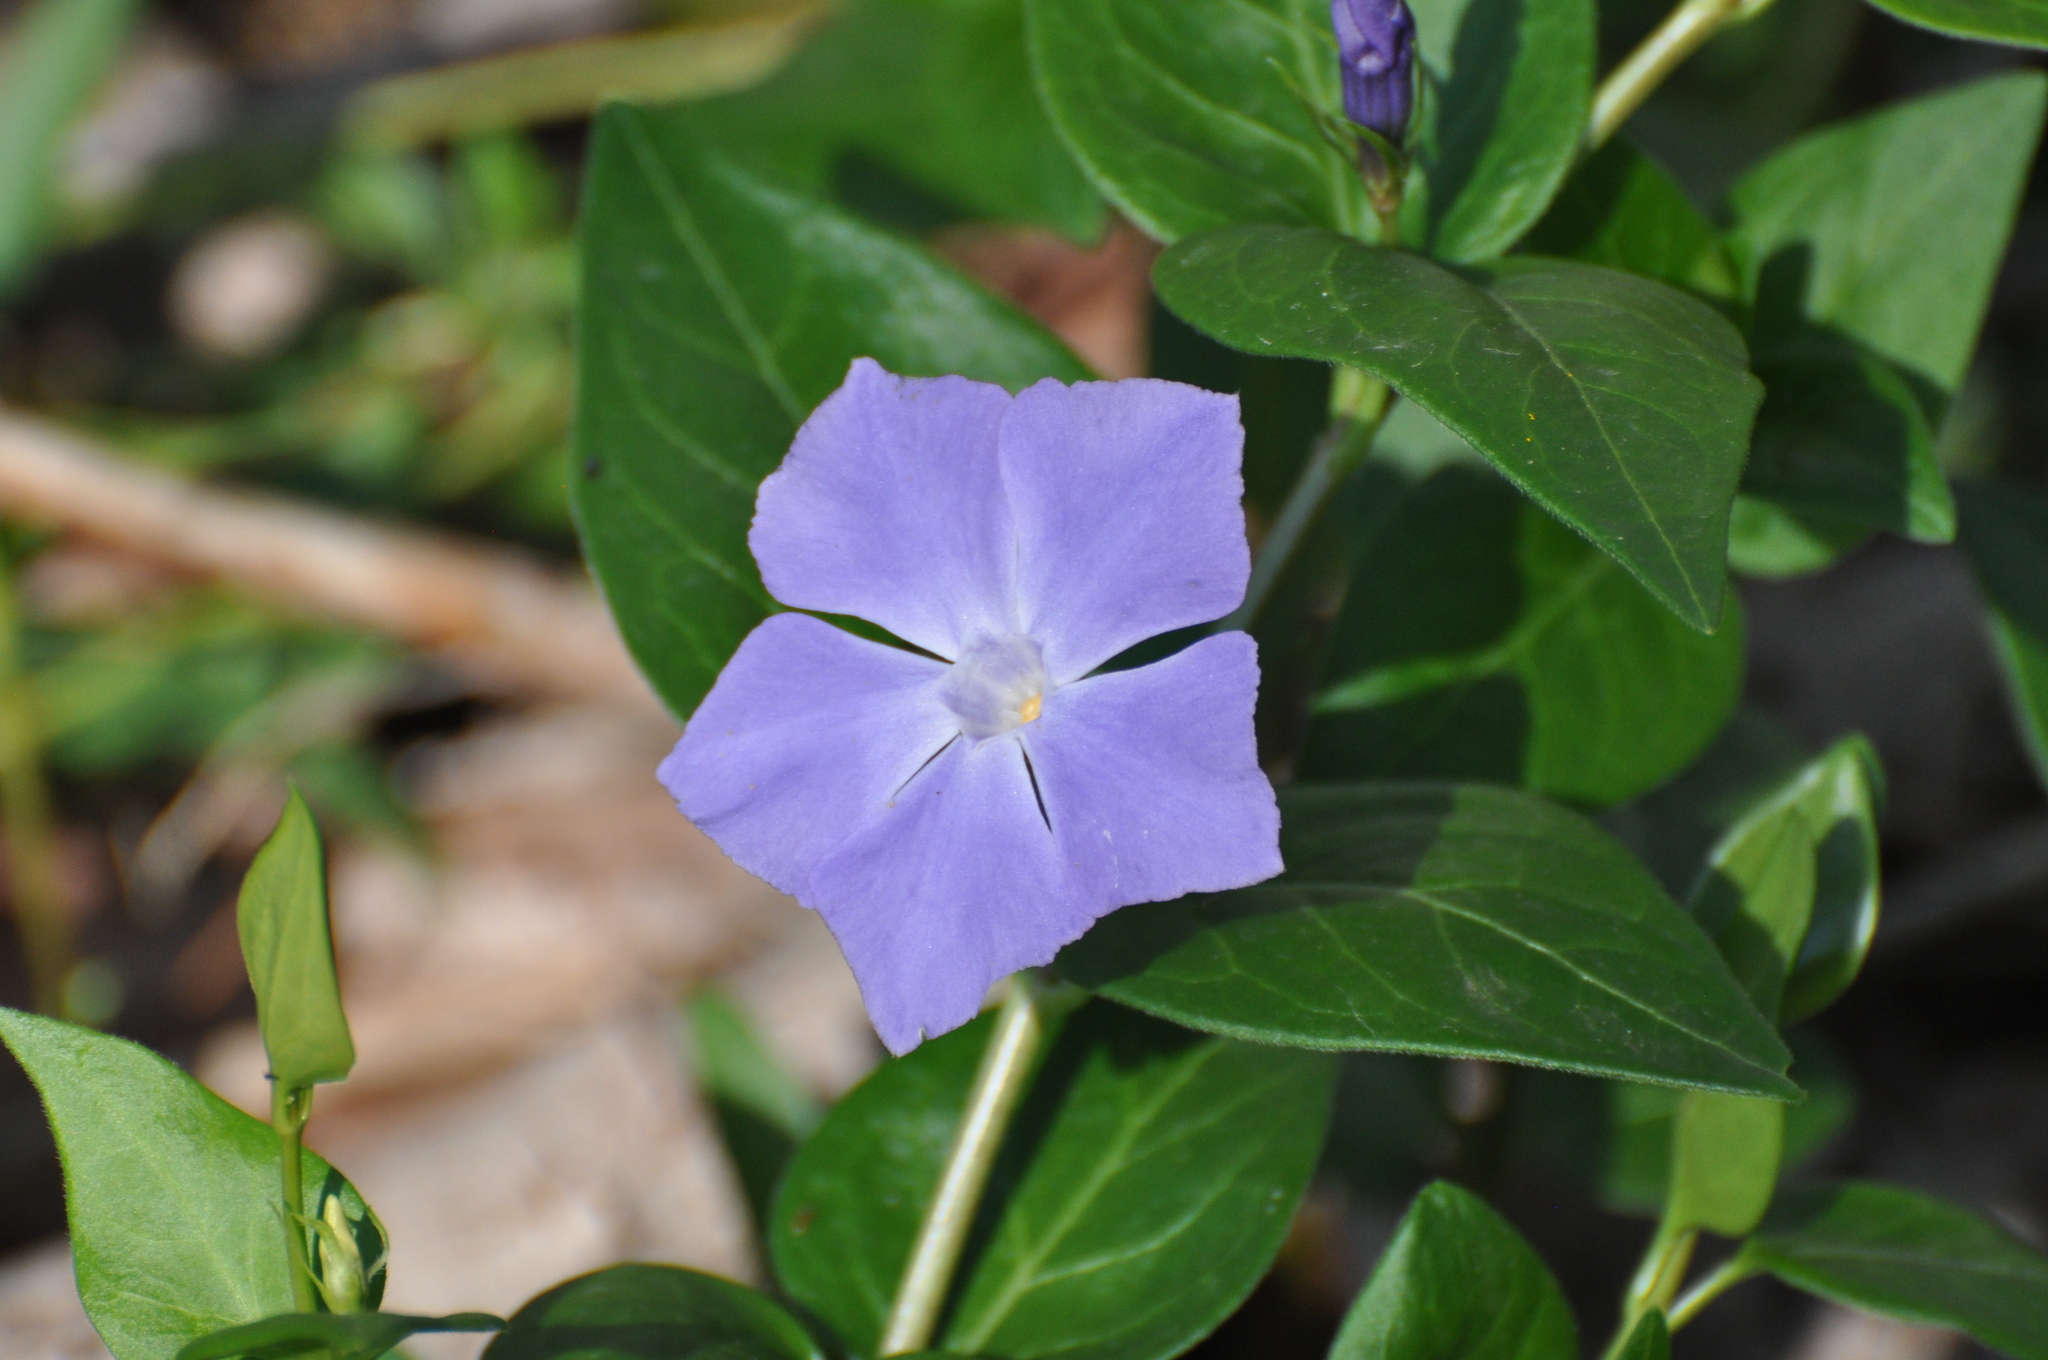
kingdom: Plantae
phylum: Tracheophyta
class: Magnoliopsida
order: Gentianales
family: Apocynaceae
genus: Vinca
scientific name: Vinca major
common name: Greater periwinkle
